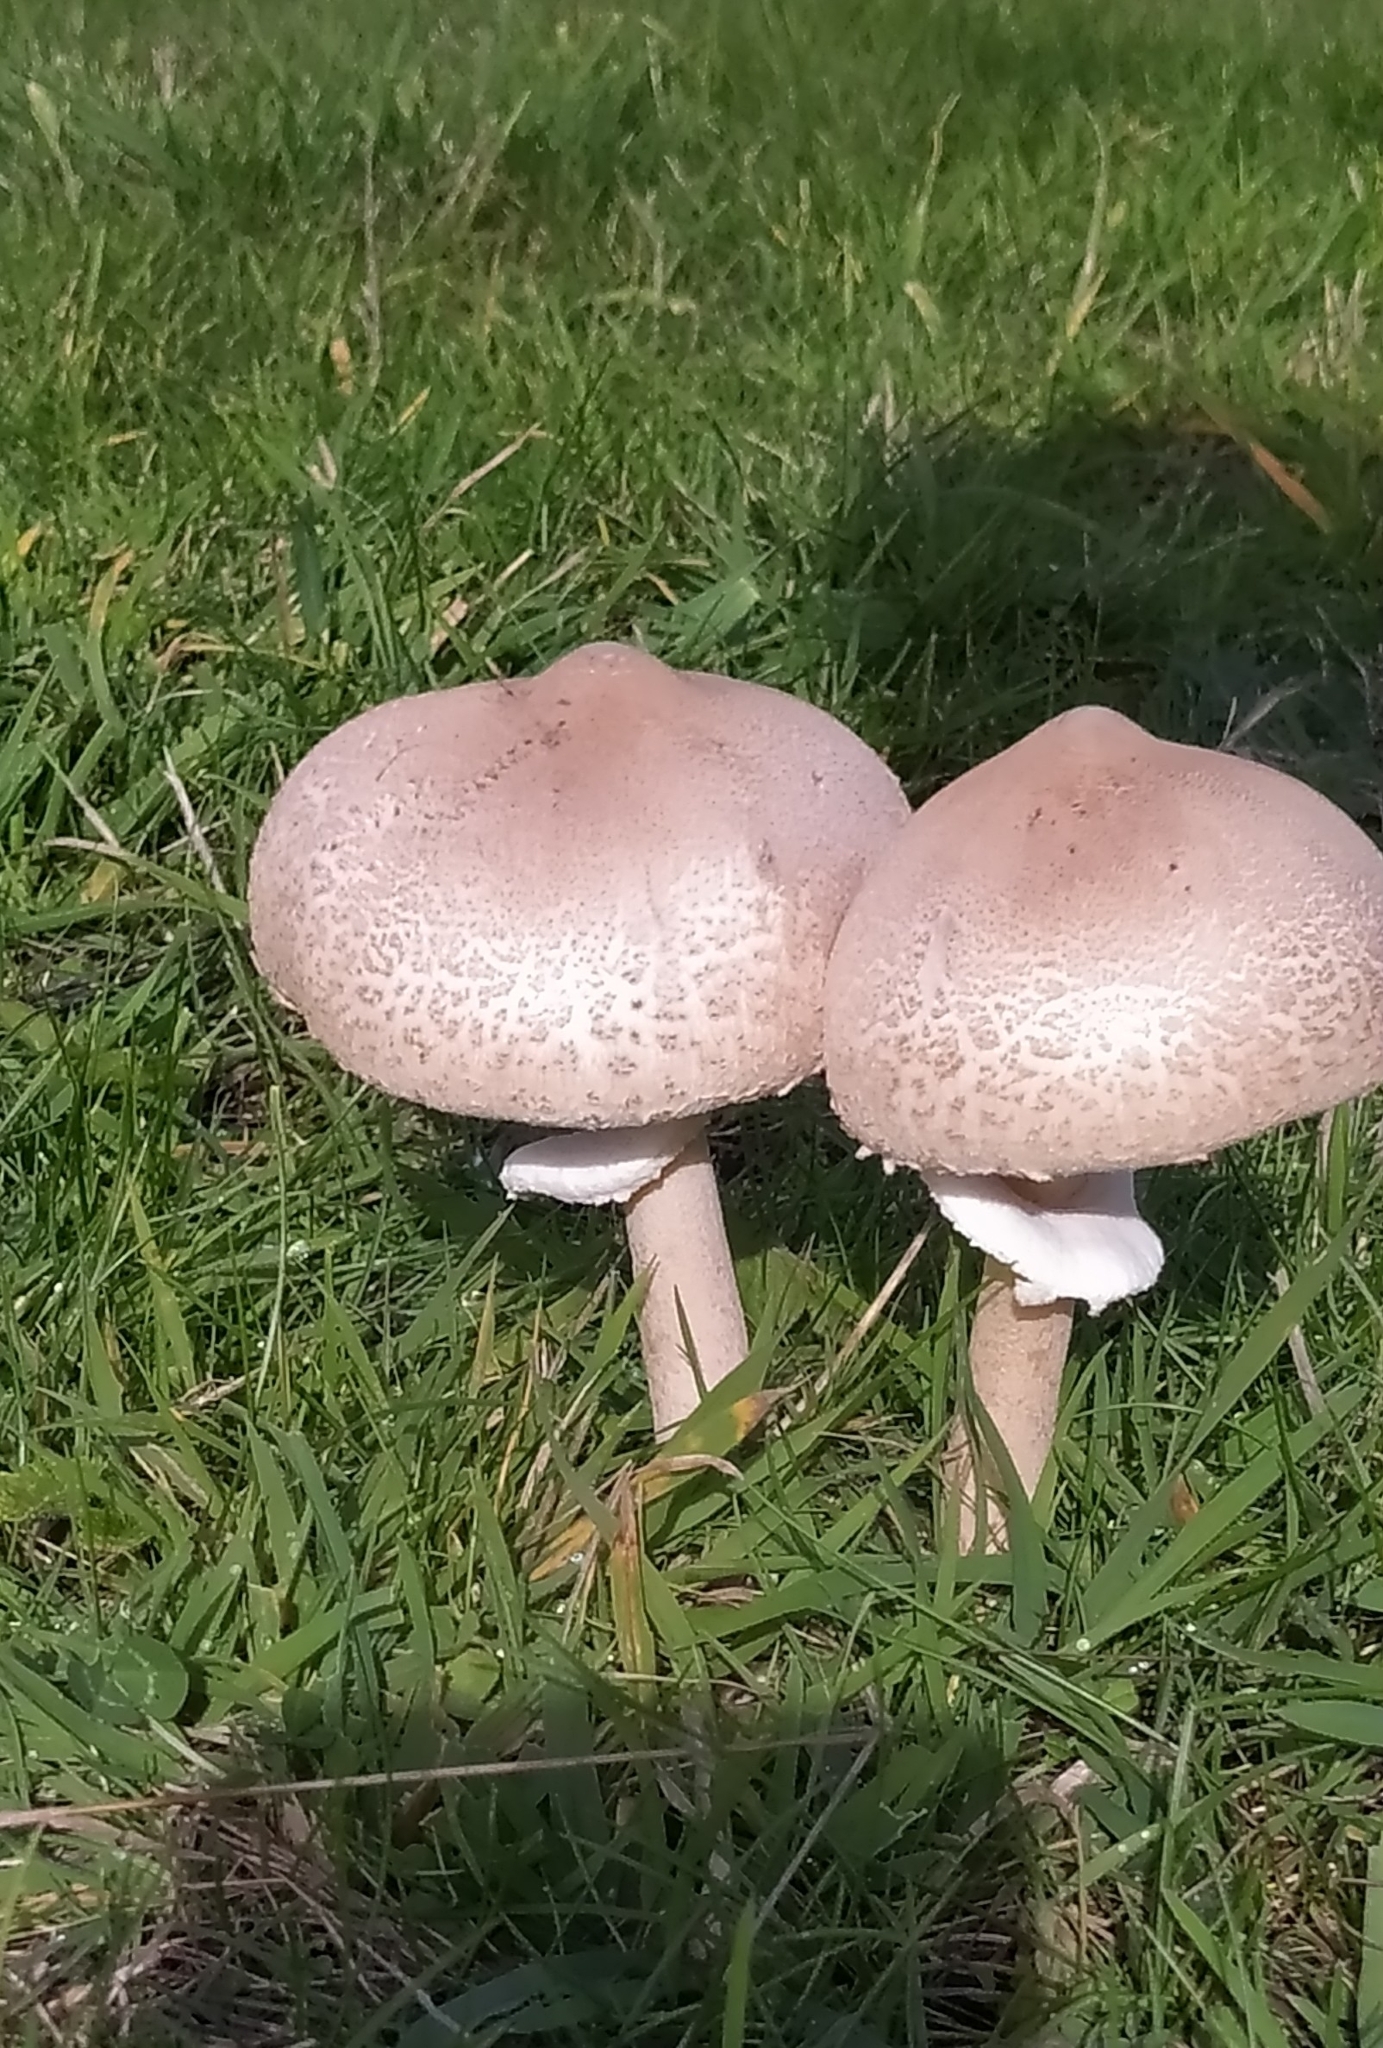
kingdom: Fungi
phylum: Basidiomycota
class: Agaricomycetes
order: Agaricales
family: Agaricaceae
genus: Macrolepiota
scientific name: Macrolepiota mastoidea
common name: Slender parasol
